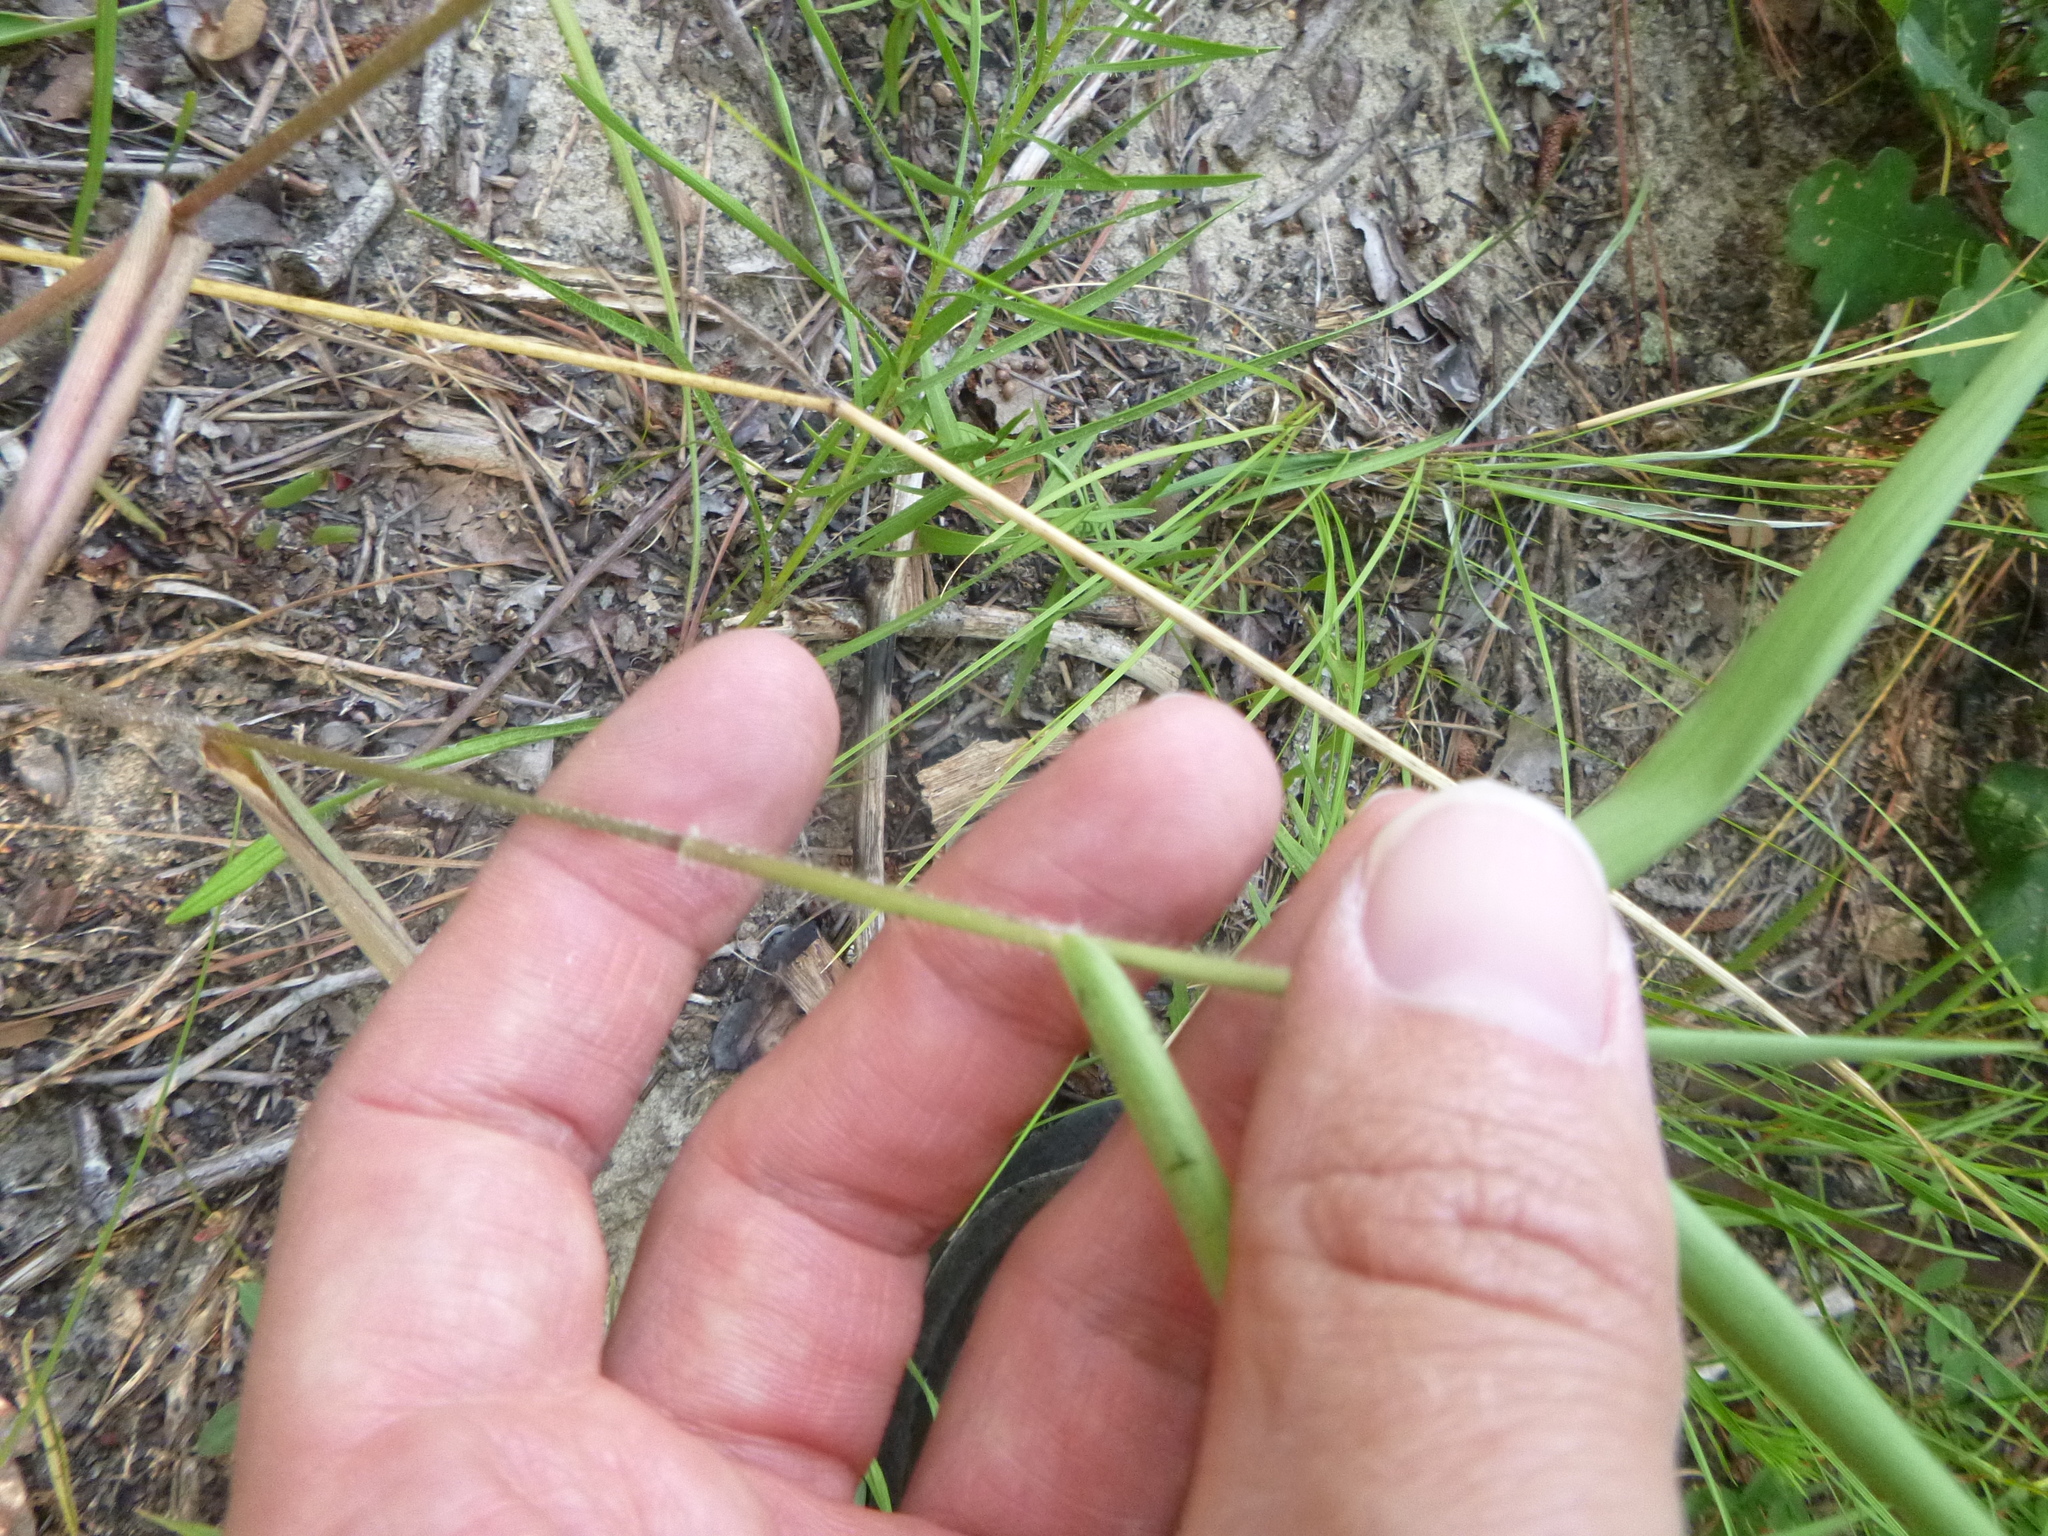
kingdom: Plantae
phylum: Tracheophyta
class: Liliopsida
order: Poales
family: Poaceae
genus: Dichanthelium
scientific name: Dichanthelium ravenelii
